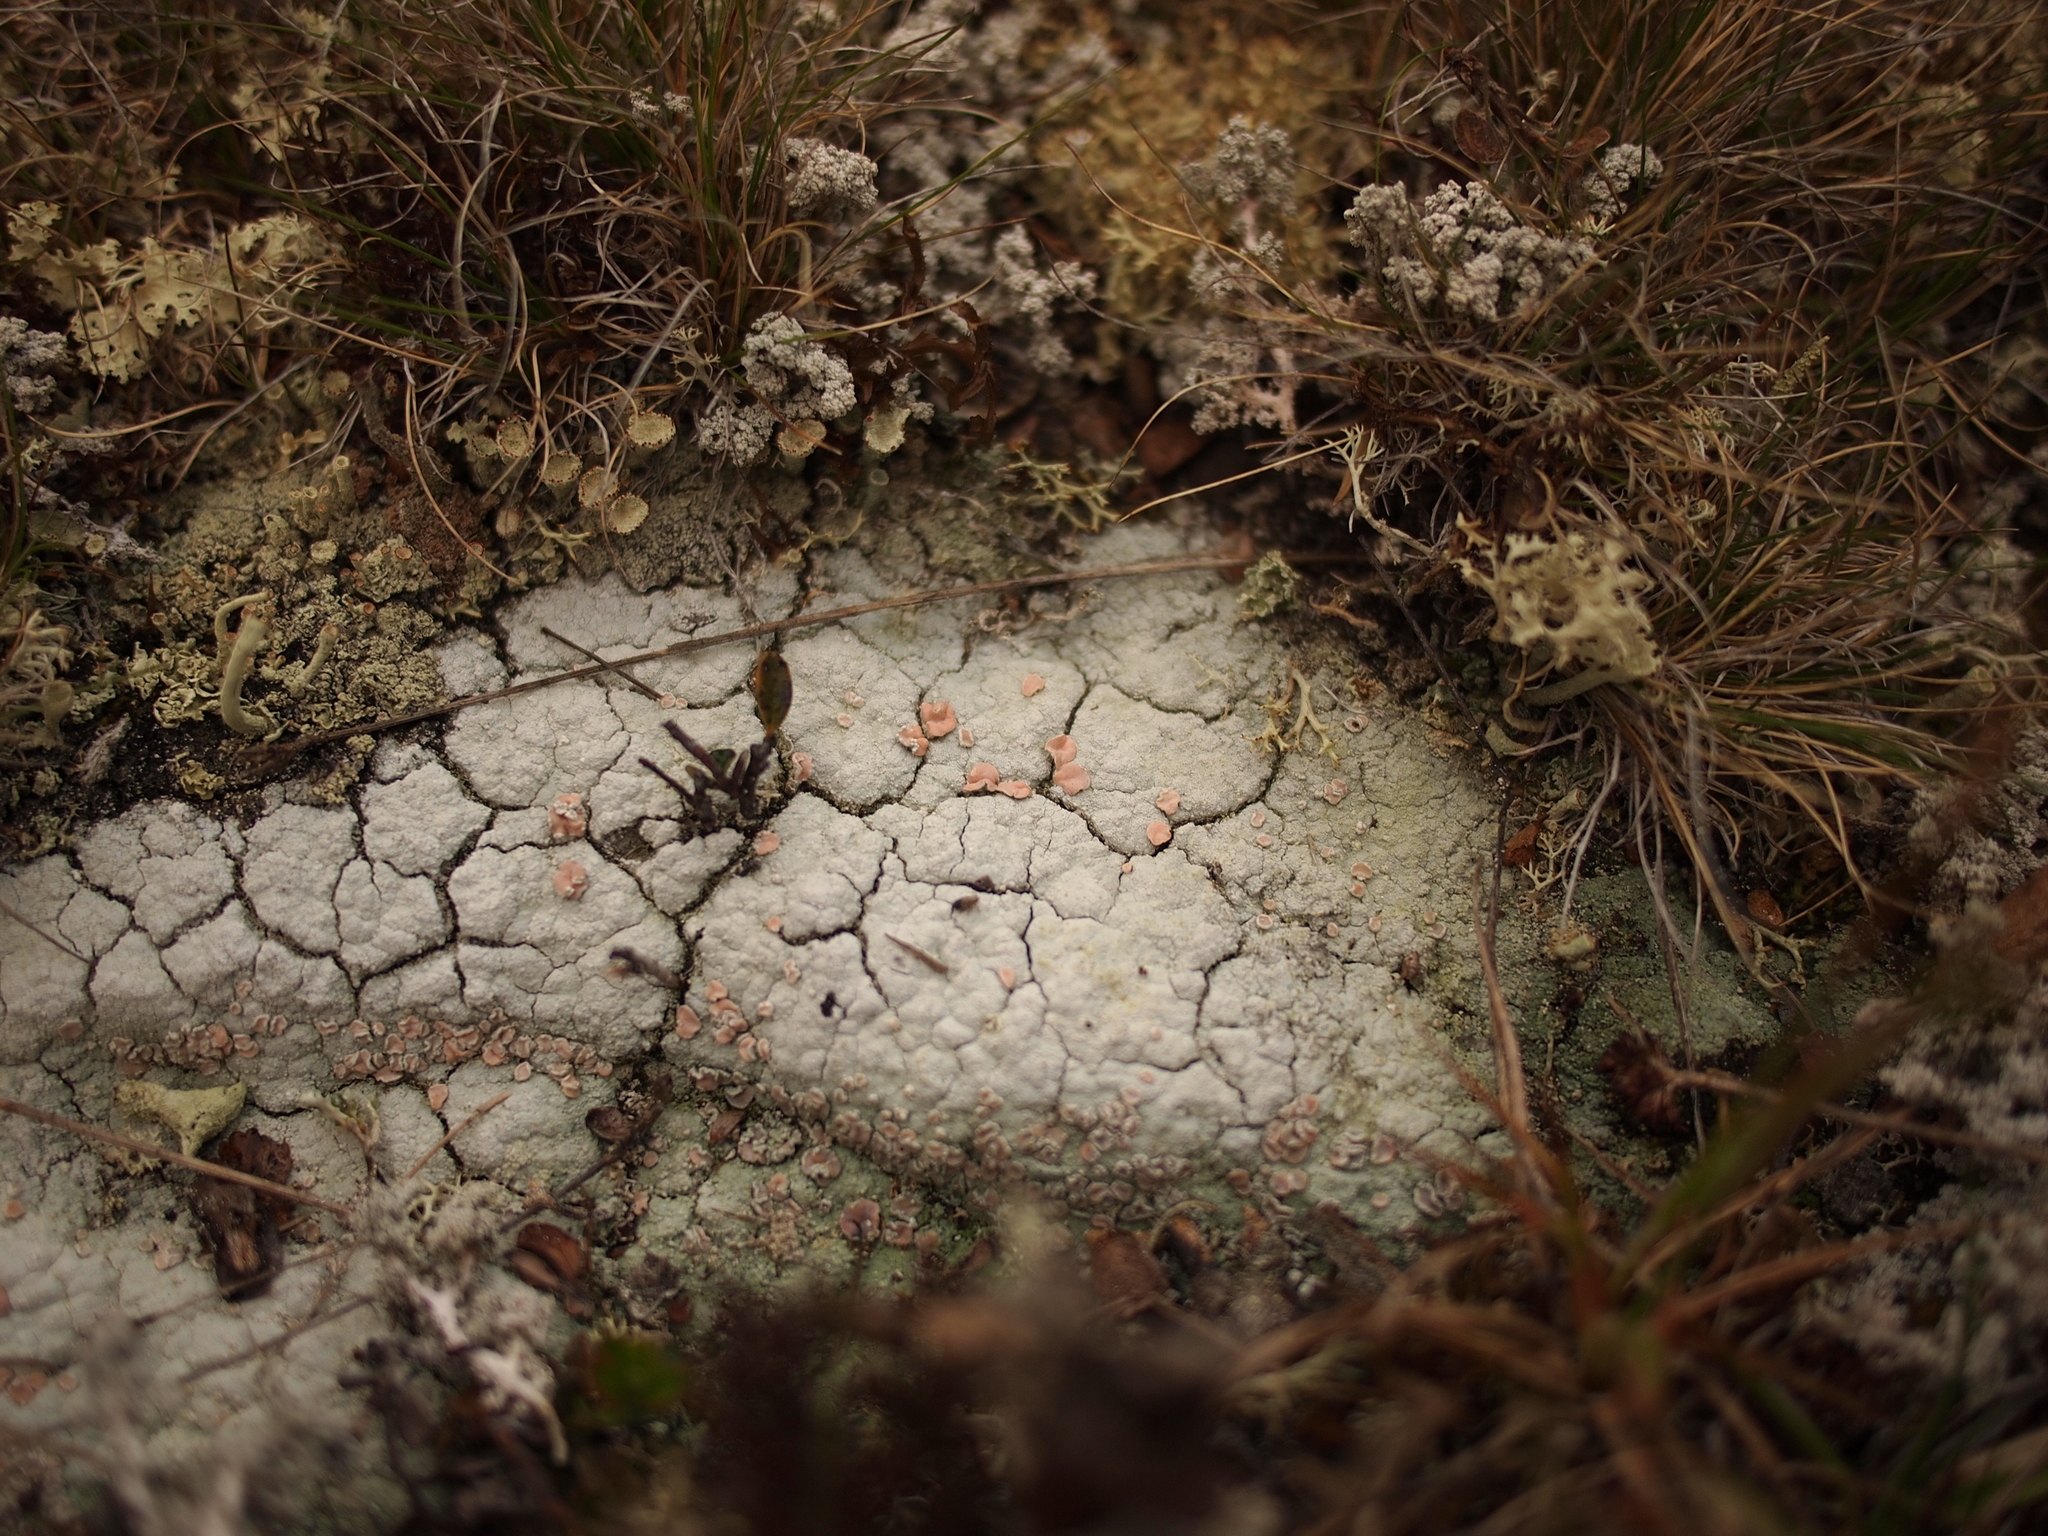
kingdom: Fungi
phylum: Ascomycota
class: Lecanoromycetes
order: Pertusariales
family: Icmadophilaceae
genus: Icmadophila
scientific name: Icmadophila ericetorum
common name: Candy lichen
